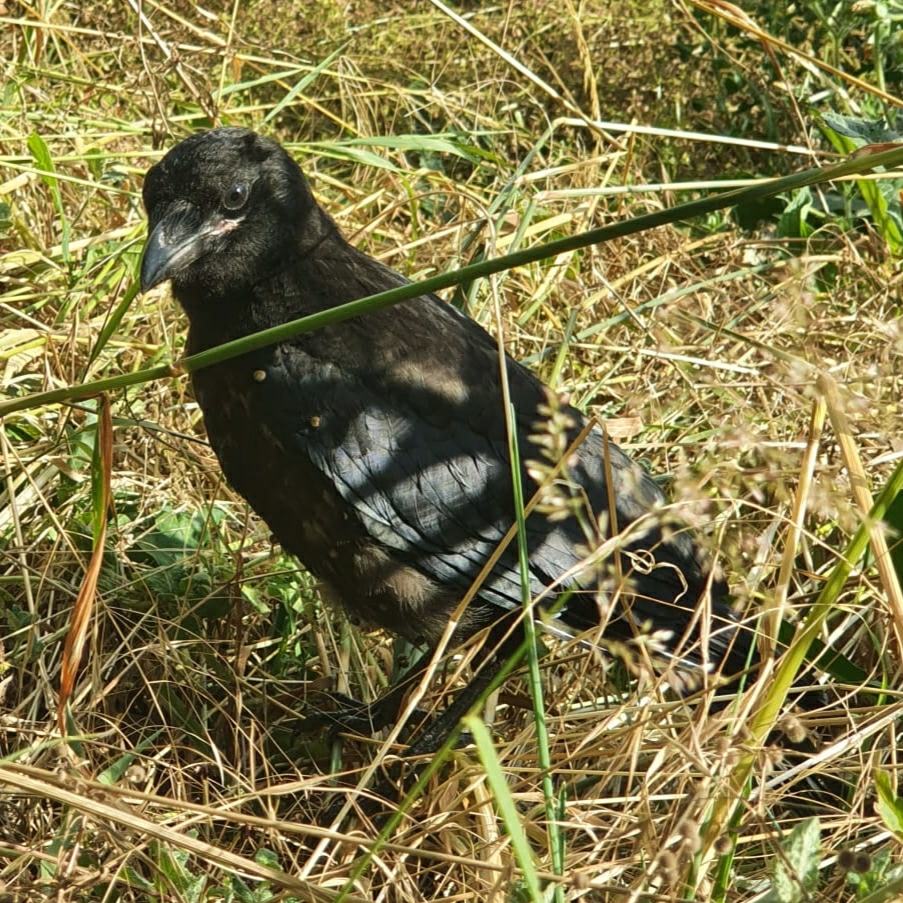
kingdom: Animalia
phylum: Chordata
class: Aves
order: Passeriformes
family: Corvidae
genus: Corvus
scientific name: Corvus corone
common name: Carrion crow
